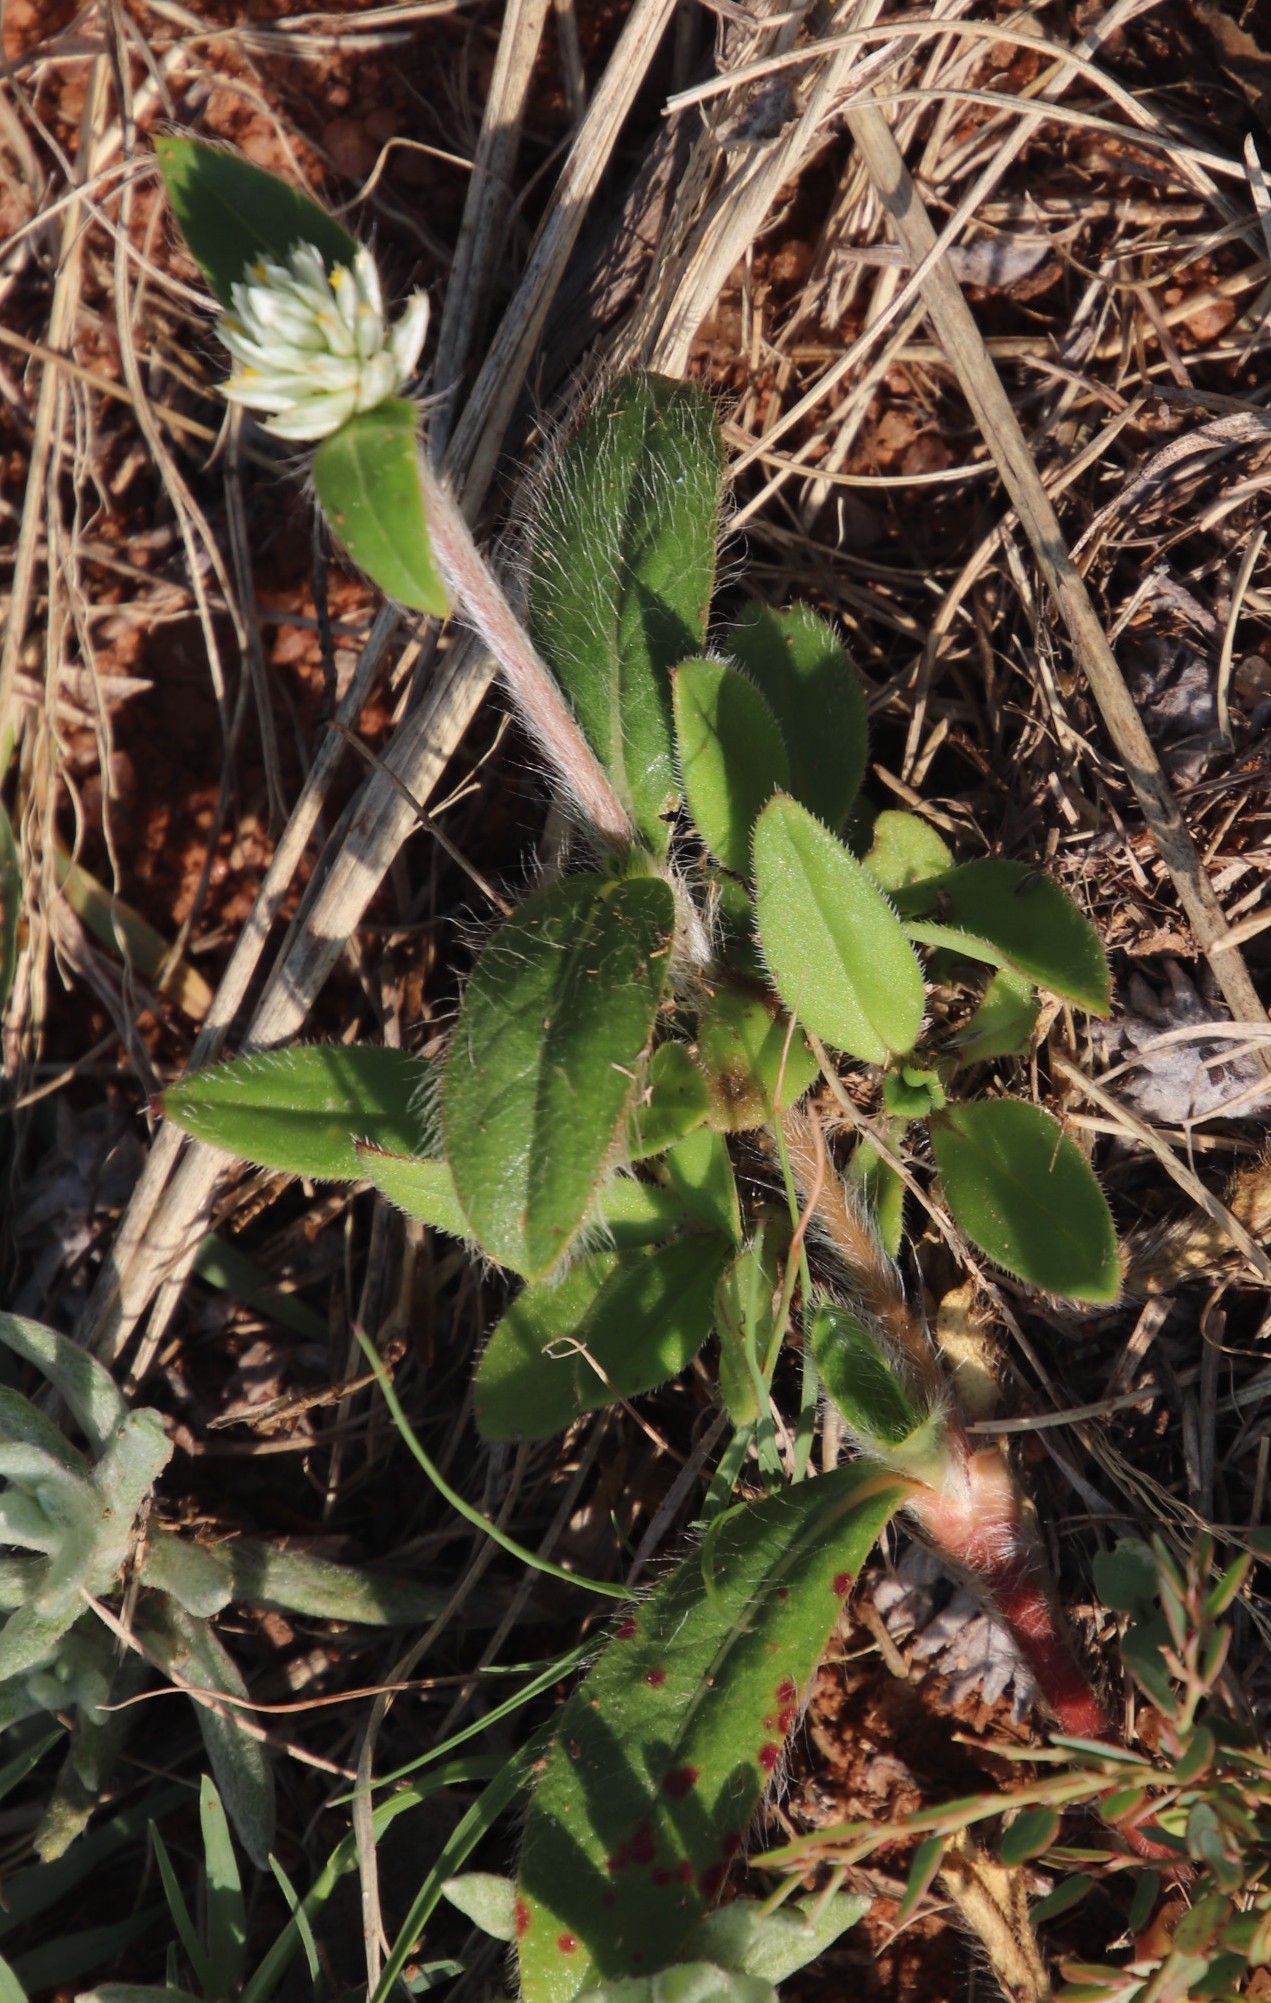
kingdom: Plantae
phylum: Tracheophyta
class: Magnoliopsida
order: Caryophyllales
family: Amaranthaceae
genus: Gomphrena
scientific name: Gomphrena serrata
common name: Arrasa con todo
